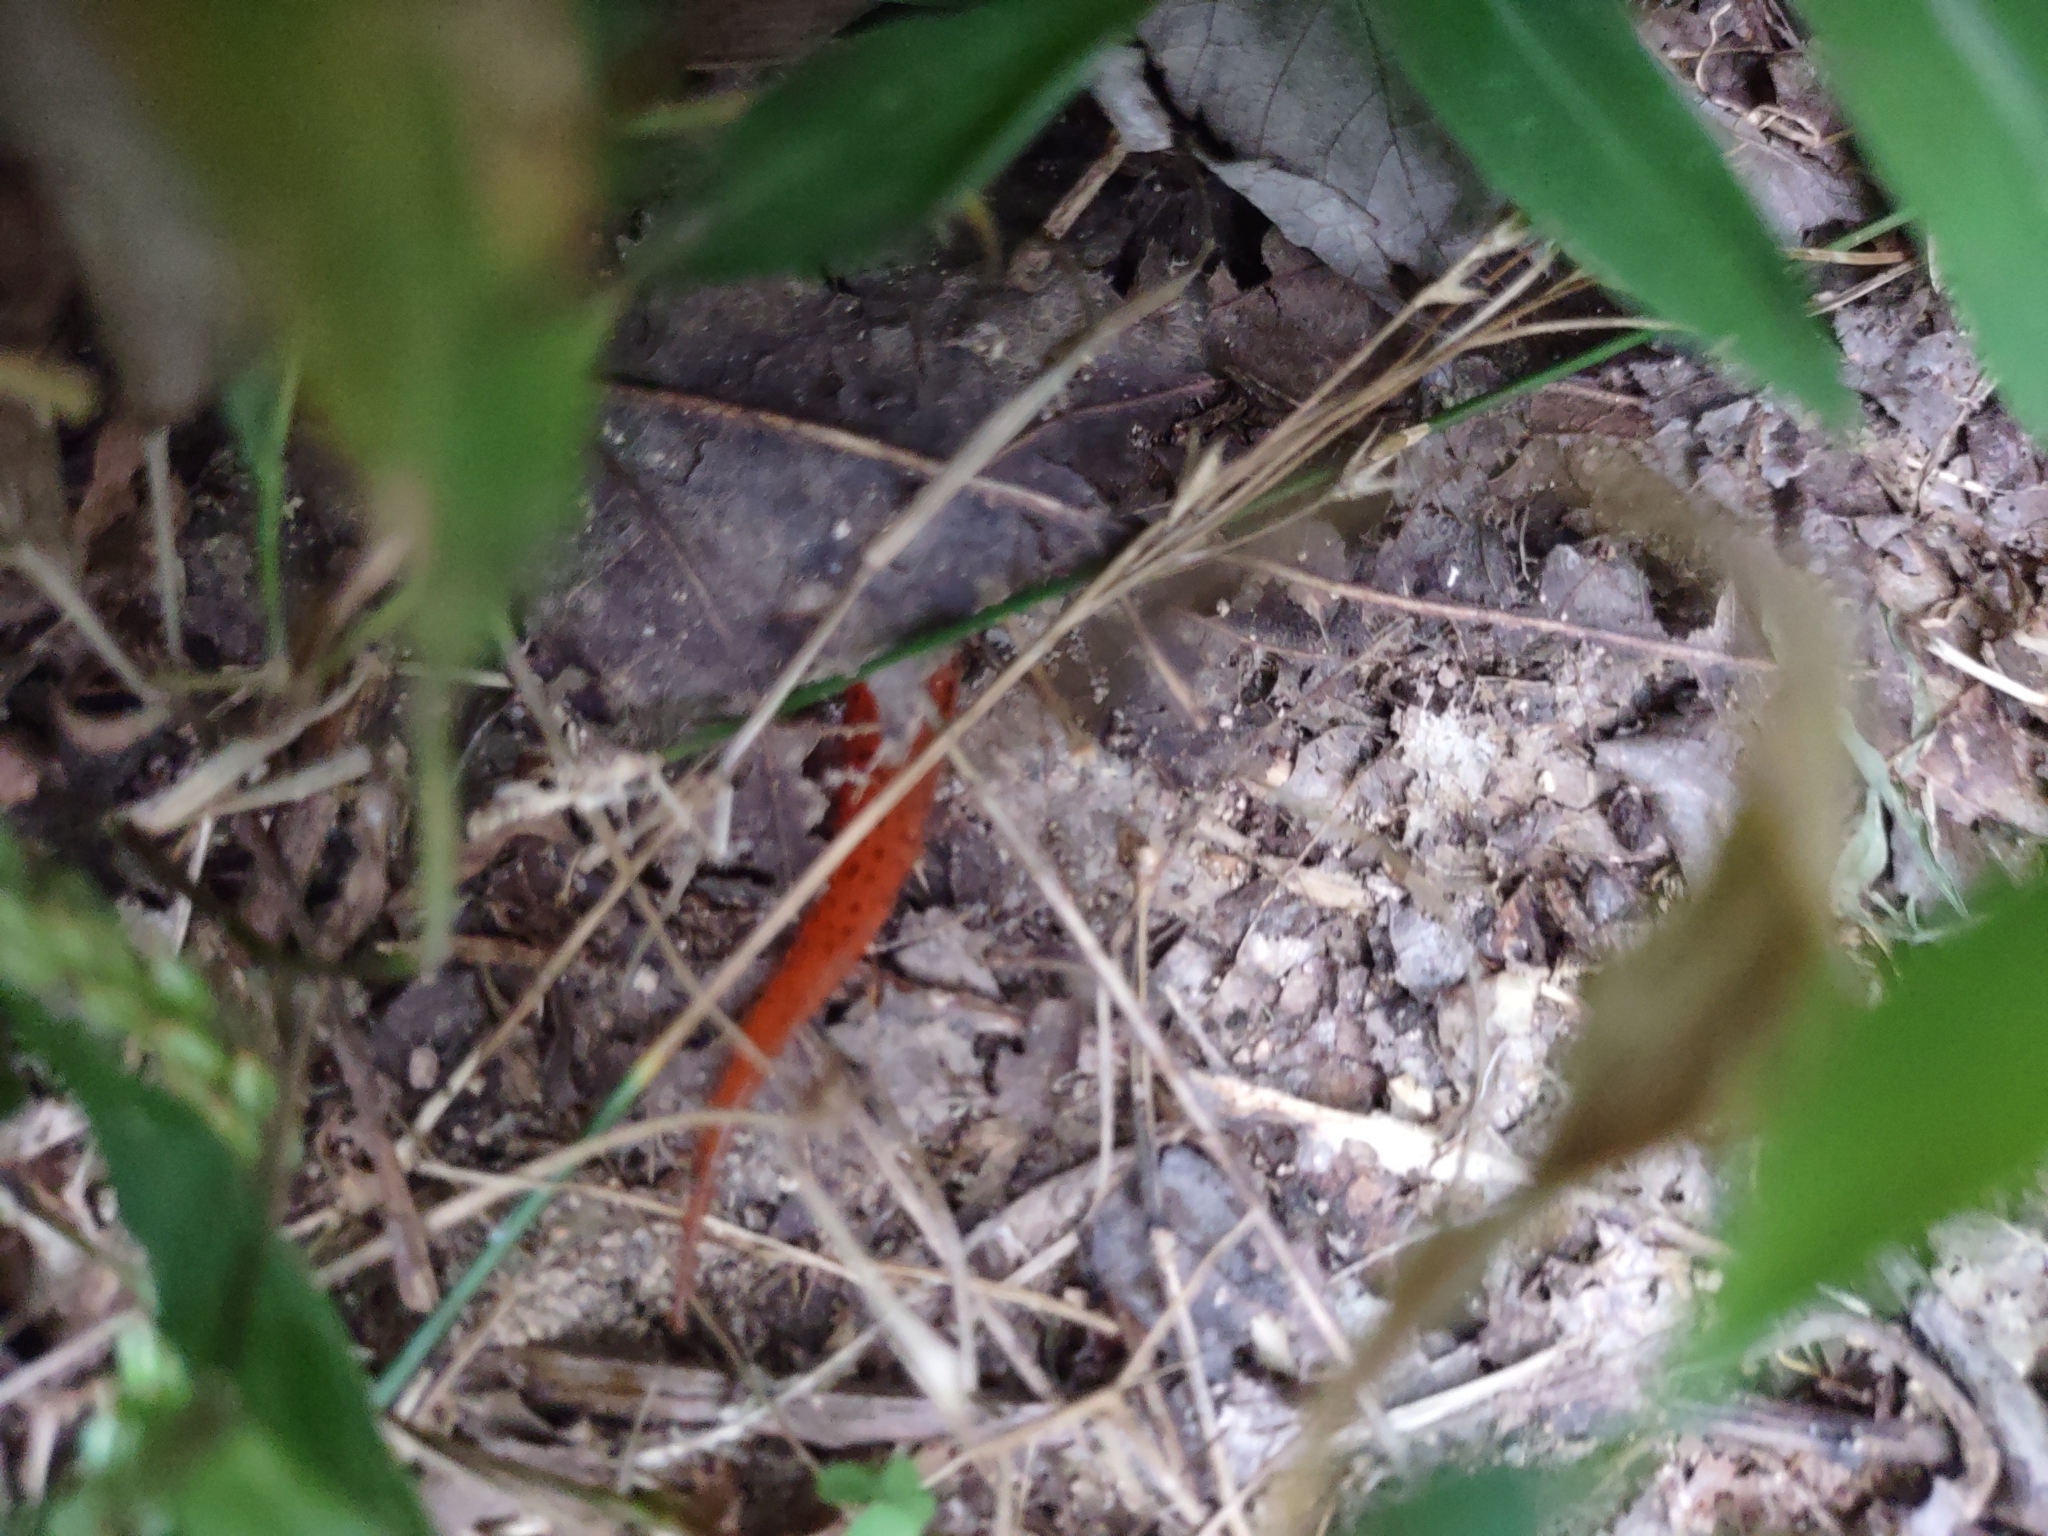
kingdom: Animalia
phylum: Chordata
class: Amphibia
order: Caudata
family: Plethodontidae
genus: Pseudotriton
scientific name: Pseudotriton ruber
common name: Red salamander
